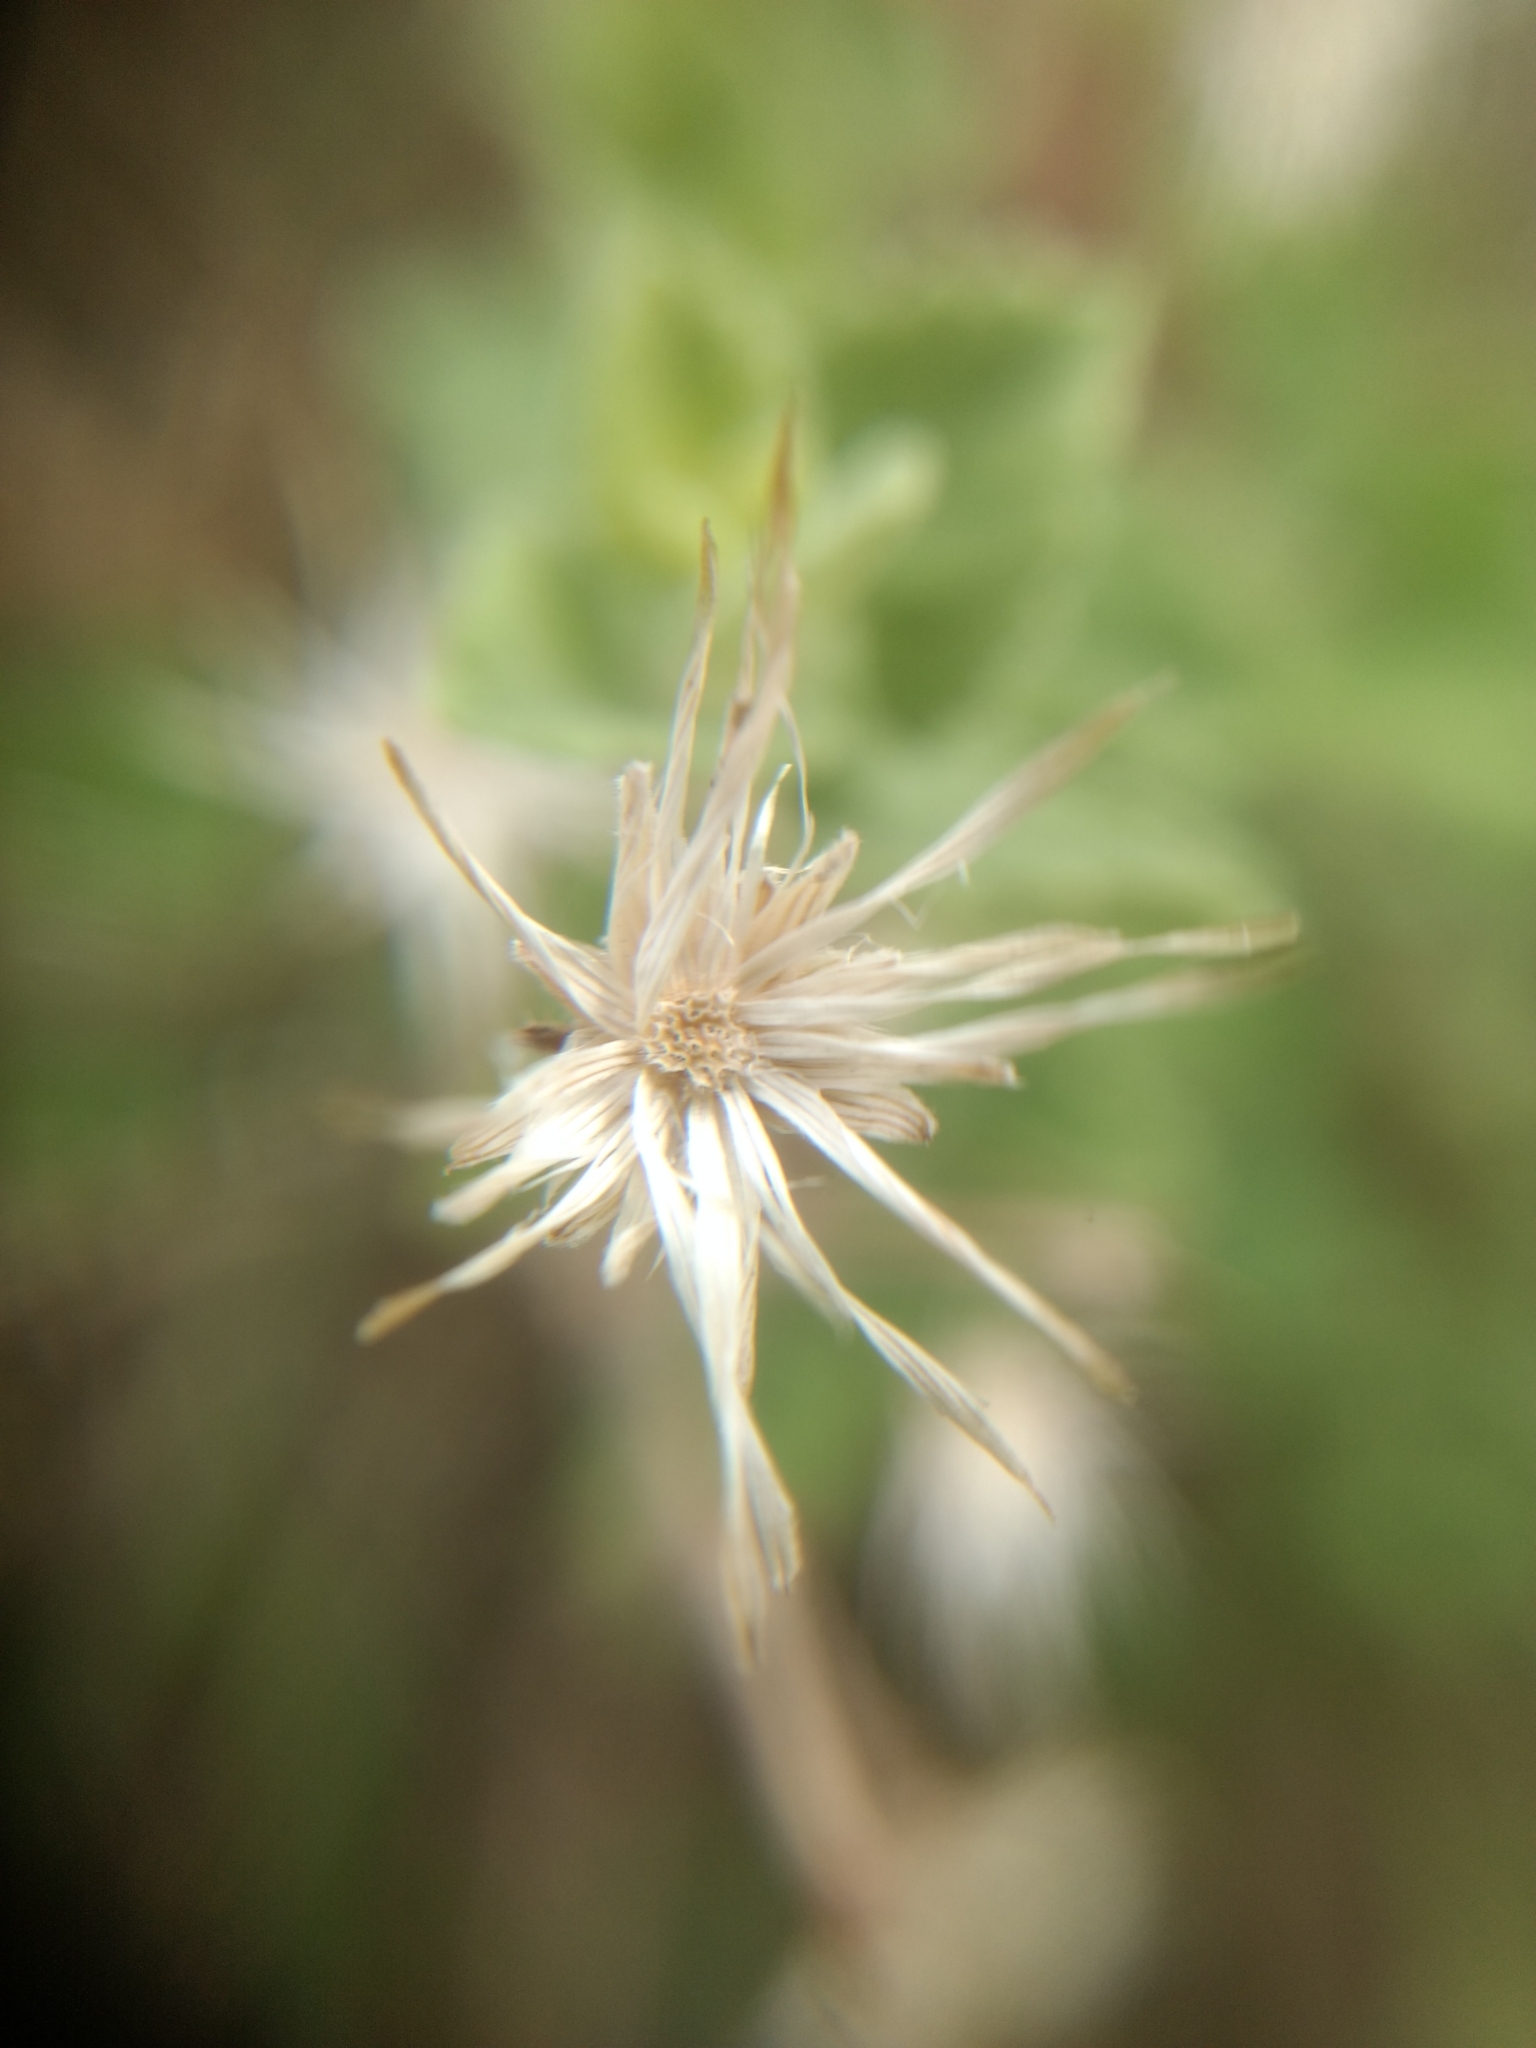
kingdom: Plantae
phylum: Tracheophyta
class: Magnoliopsida
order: Asterales
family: Asteraceae
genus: Brickellia
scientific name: Brickellia veronicifolia
